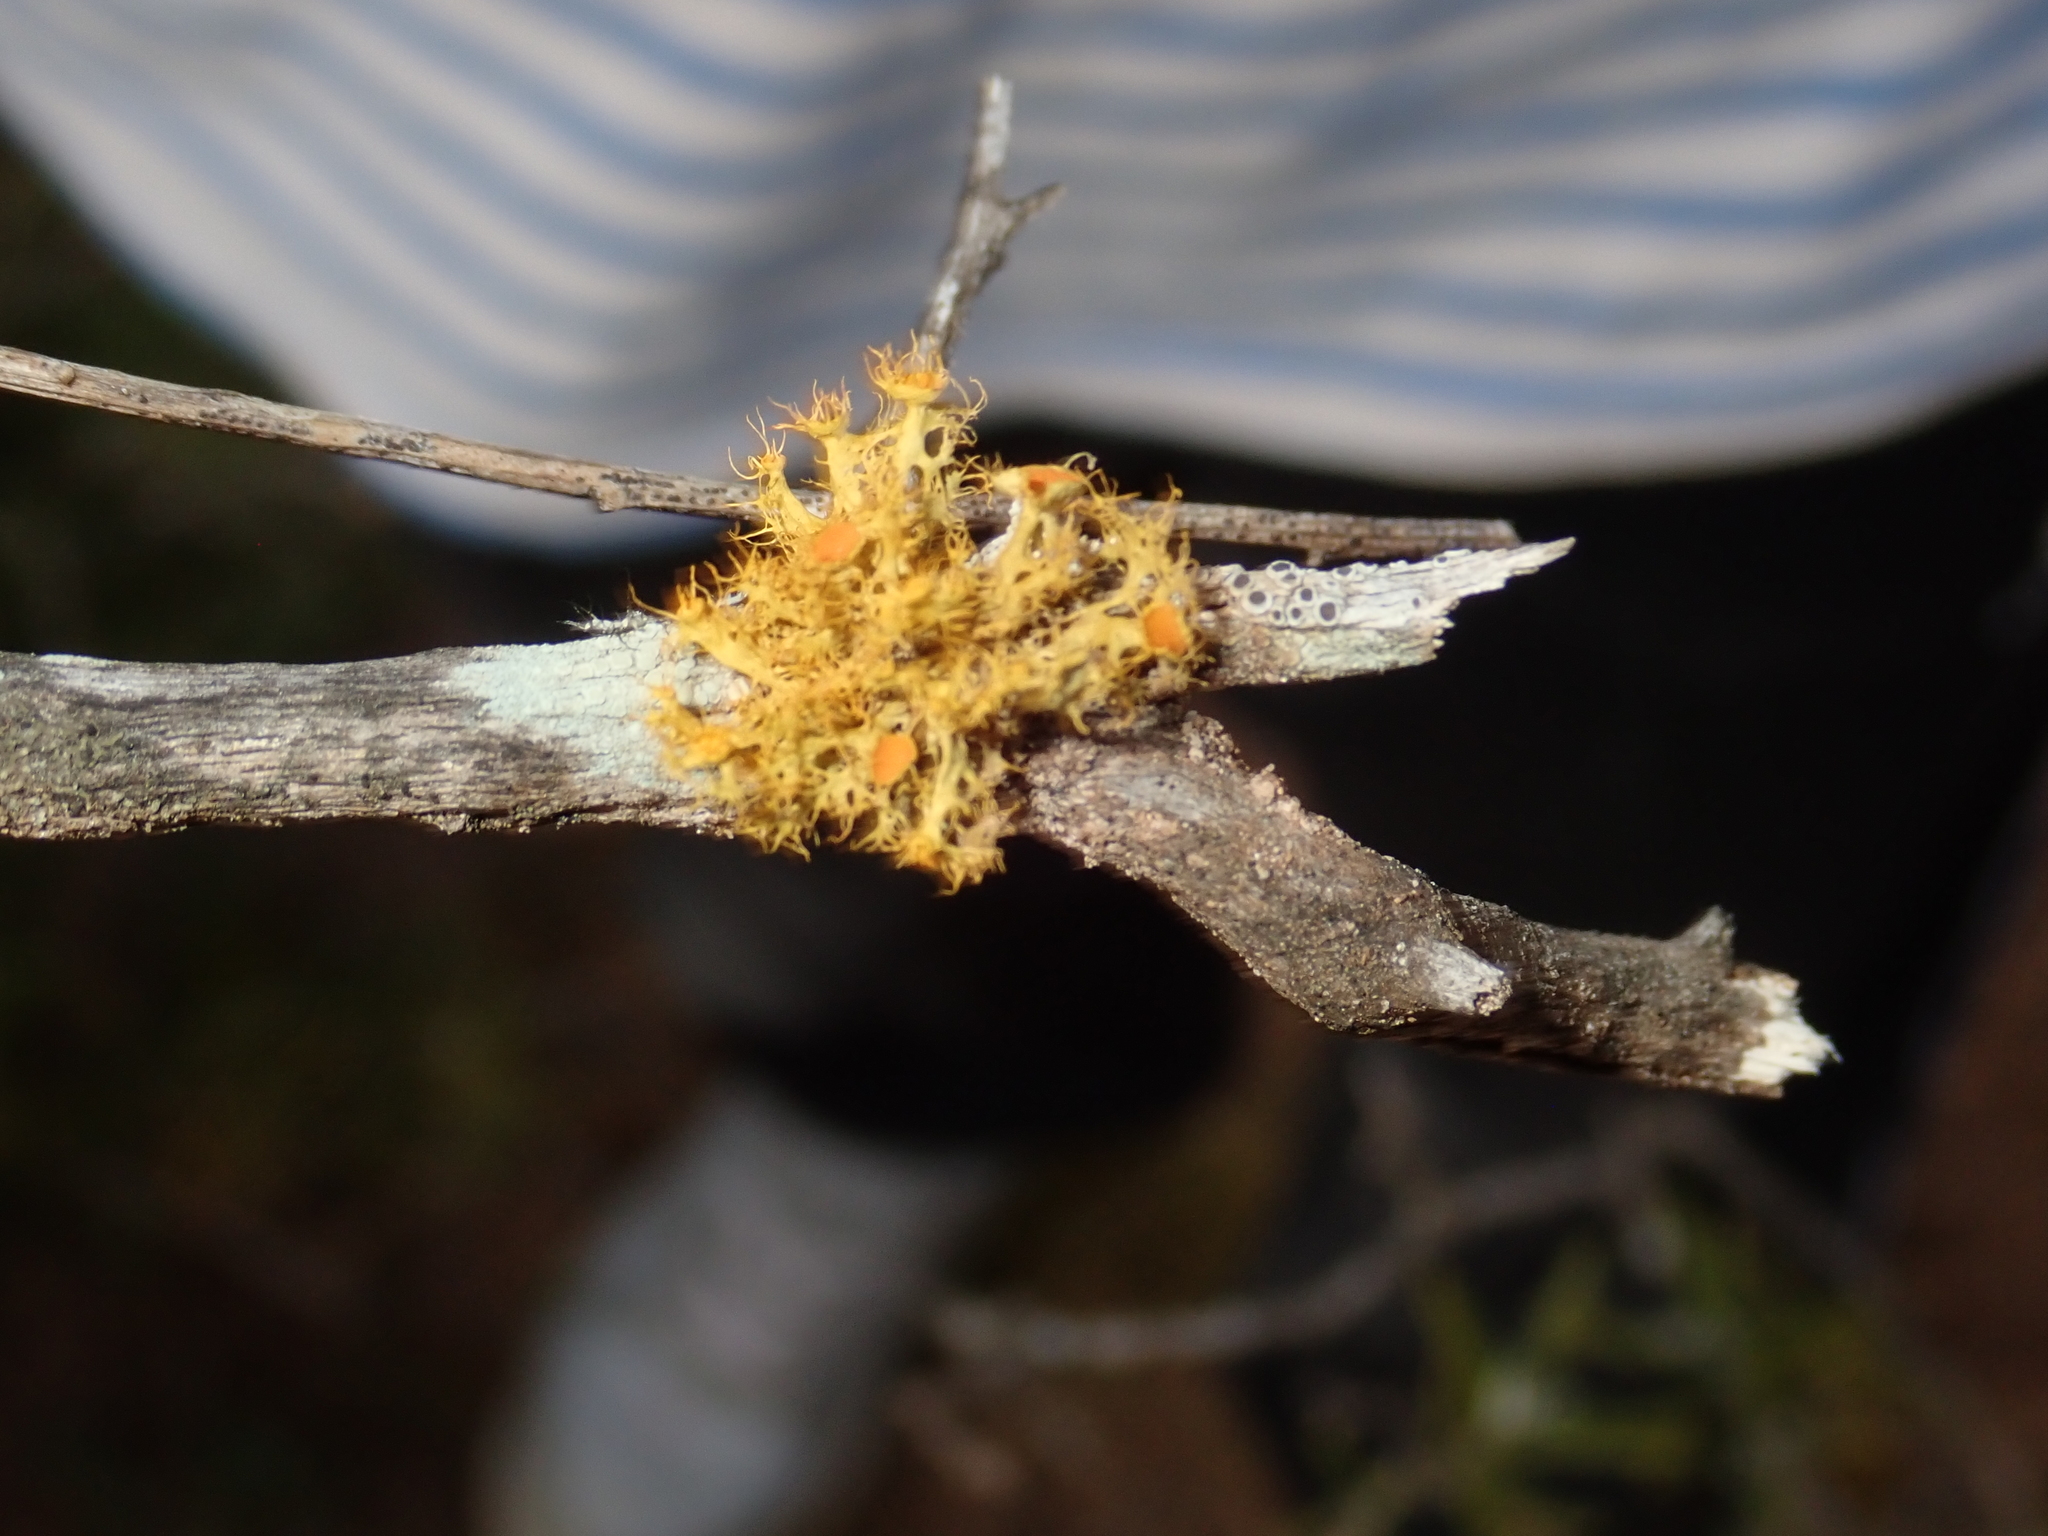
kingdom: Fungi
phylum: Ascomycota
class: Lecanoromycetes
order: Teloschistales
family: Teloschistaceae
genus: Niorma
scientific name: Niorma chrysophthalma
